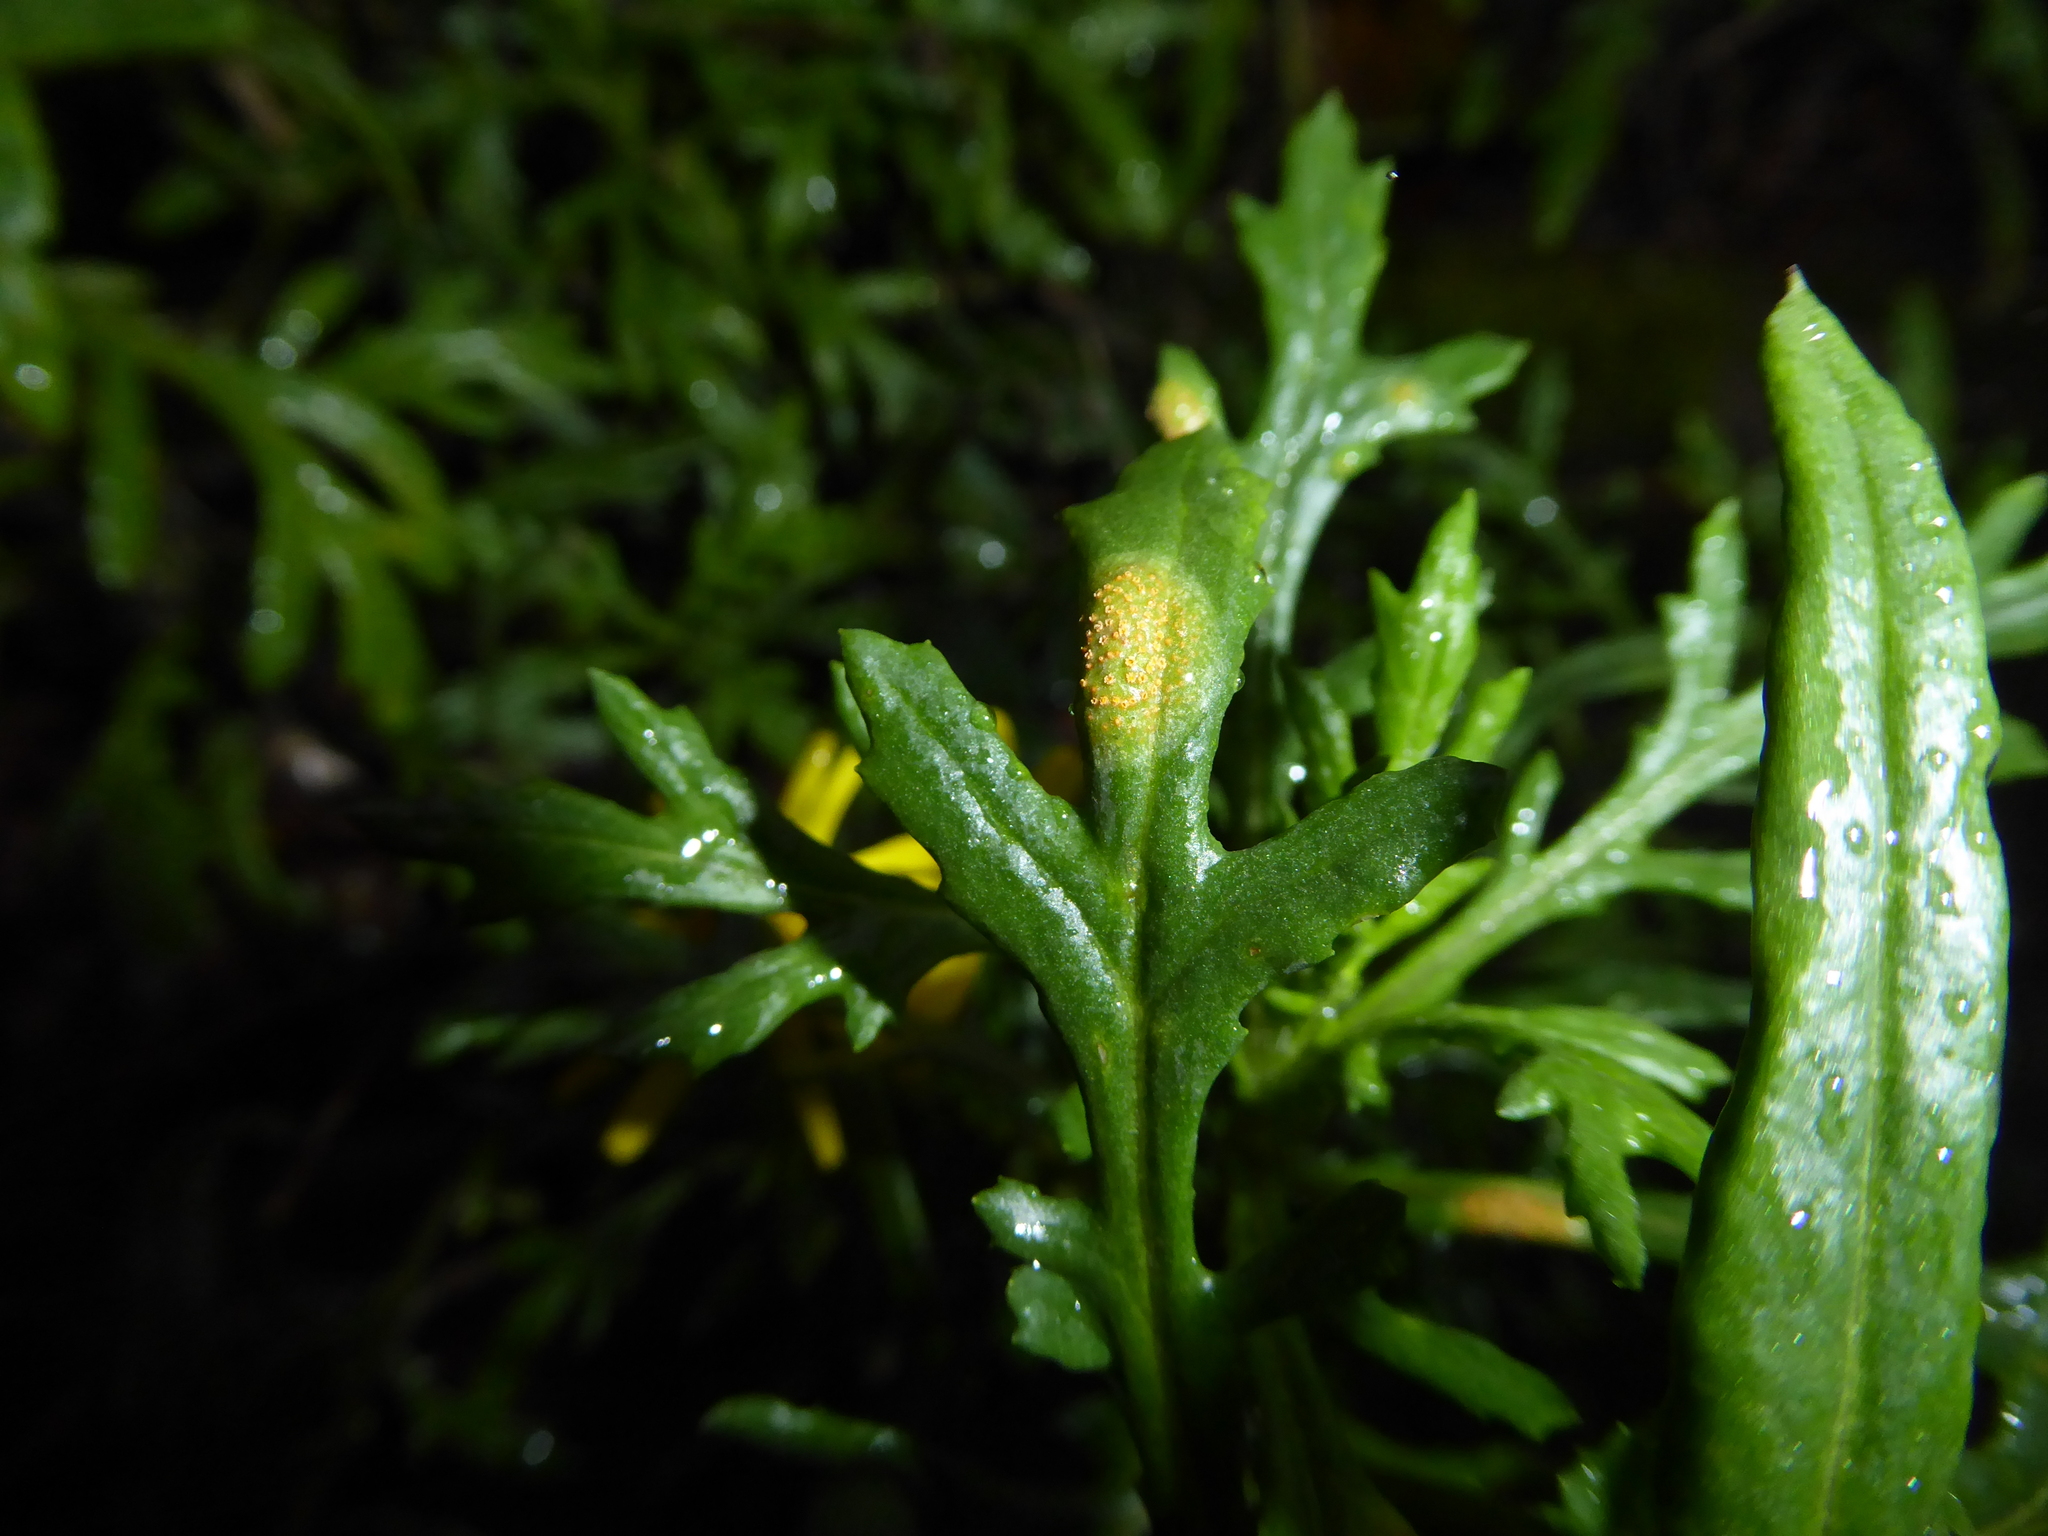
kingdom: Fungi
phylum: Basidiomycota
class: Pucciniomycetes
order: Pucciniales
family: Pucciniaceae
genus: Puccinia
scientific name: Puccinia lagenophorae
